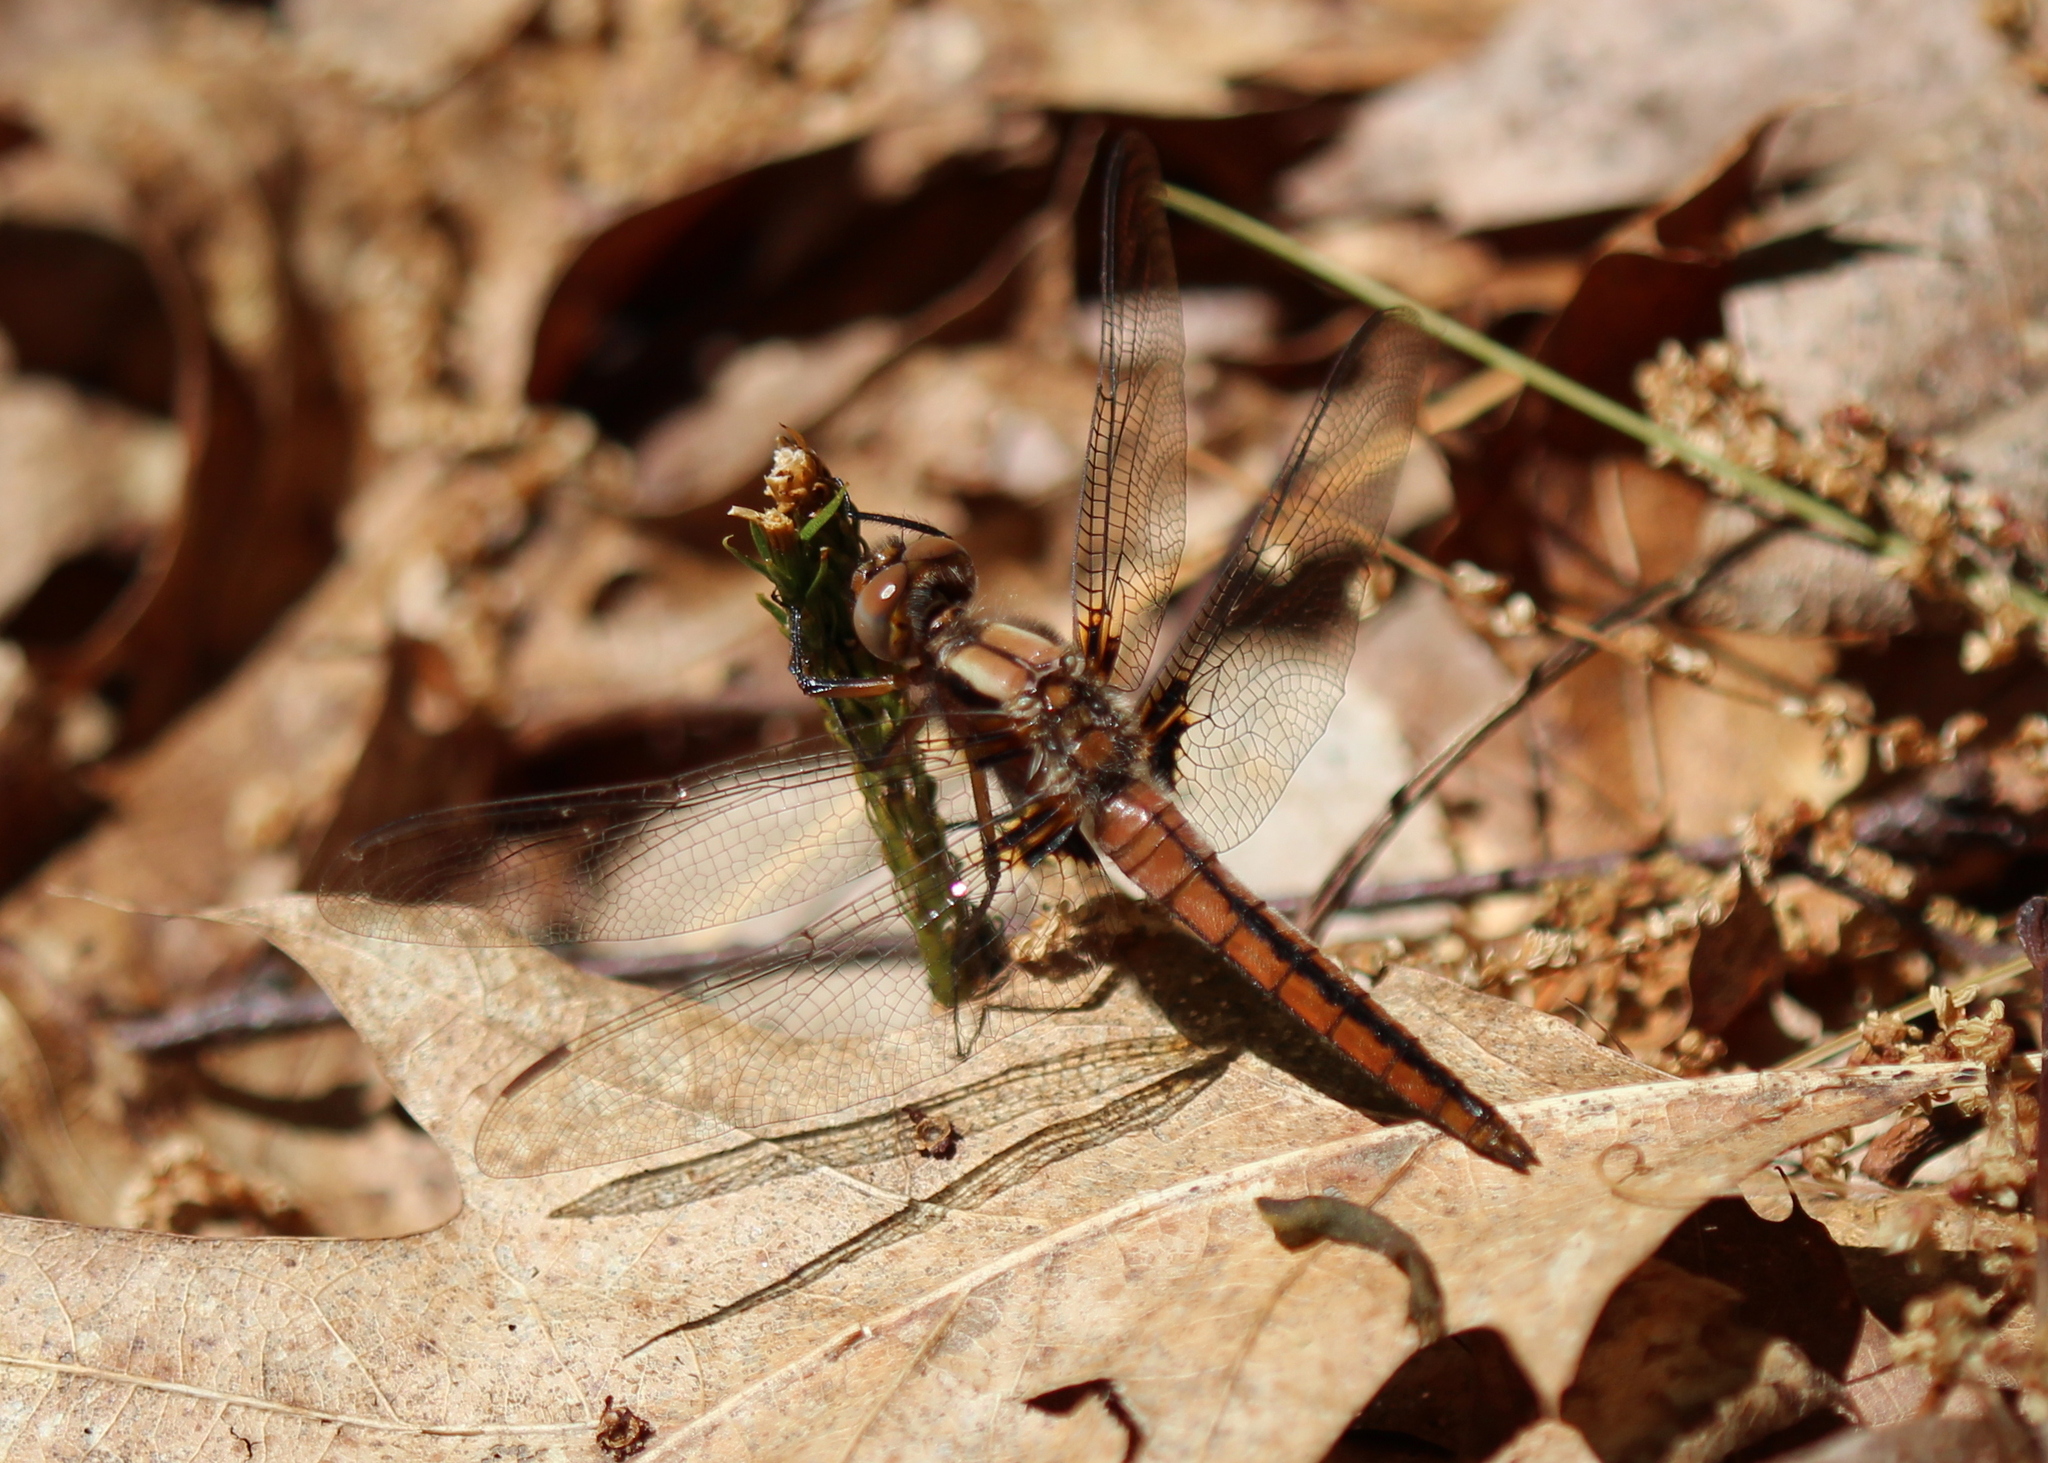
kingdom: Animalia
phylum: Arthropoda
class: Insecta
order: Odonata
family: Libellulidae
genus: Ladona
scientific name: Ladona julia
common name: Chalk-fronted corporal
